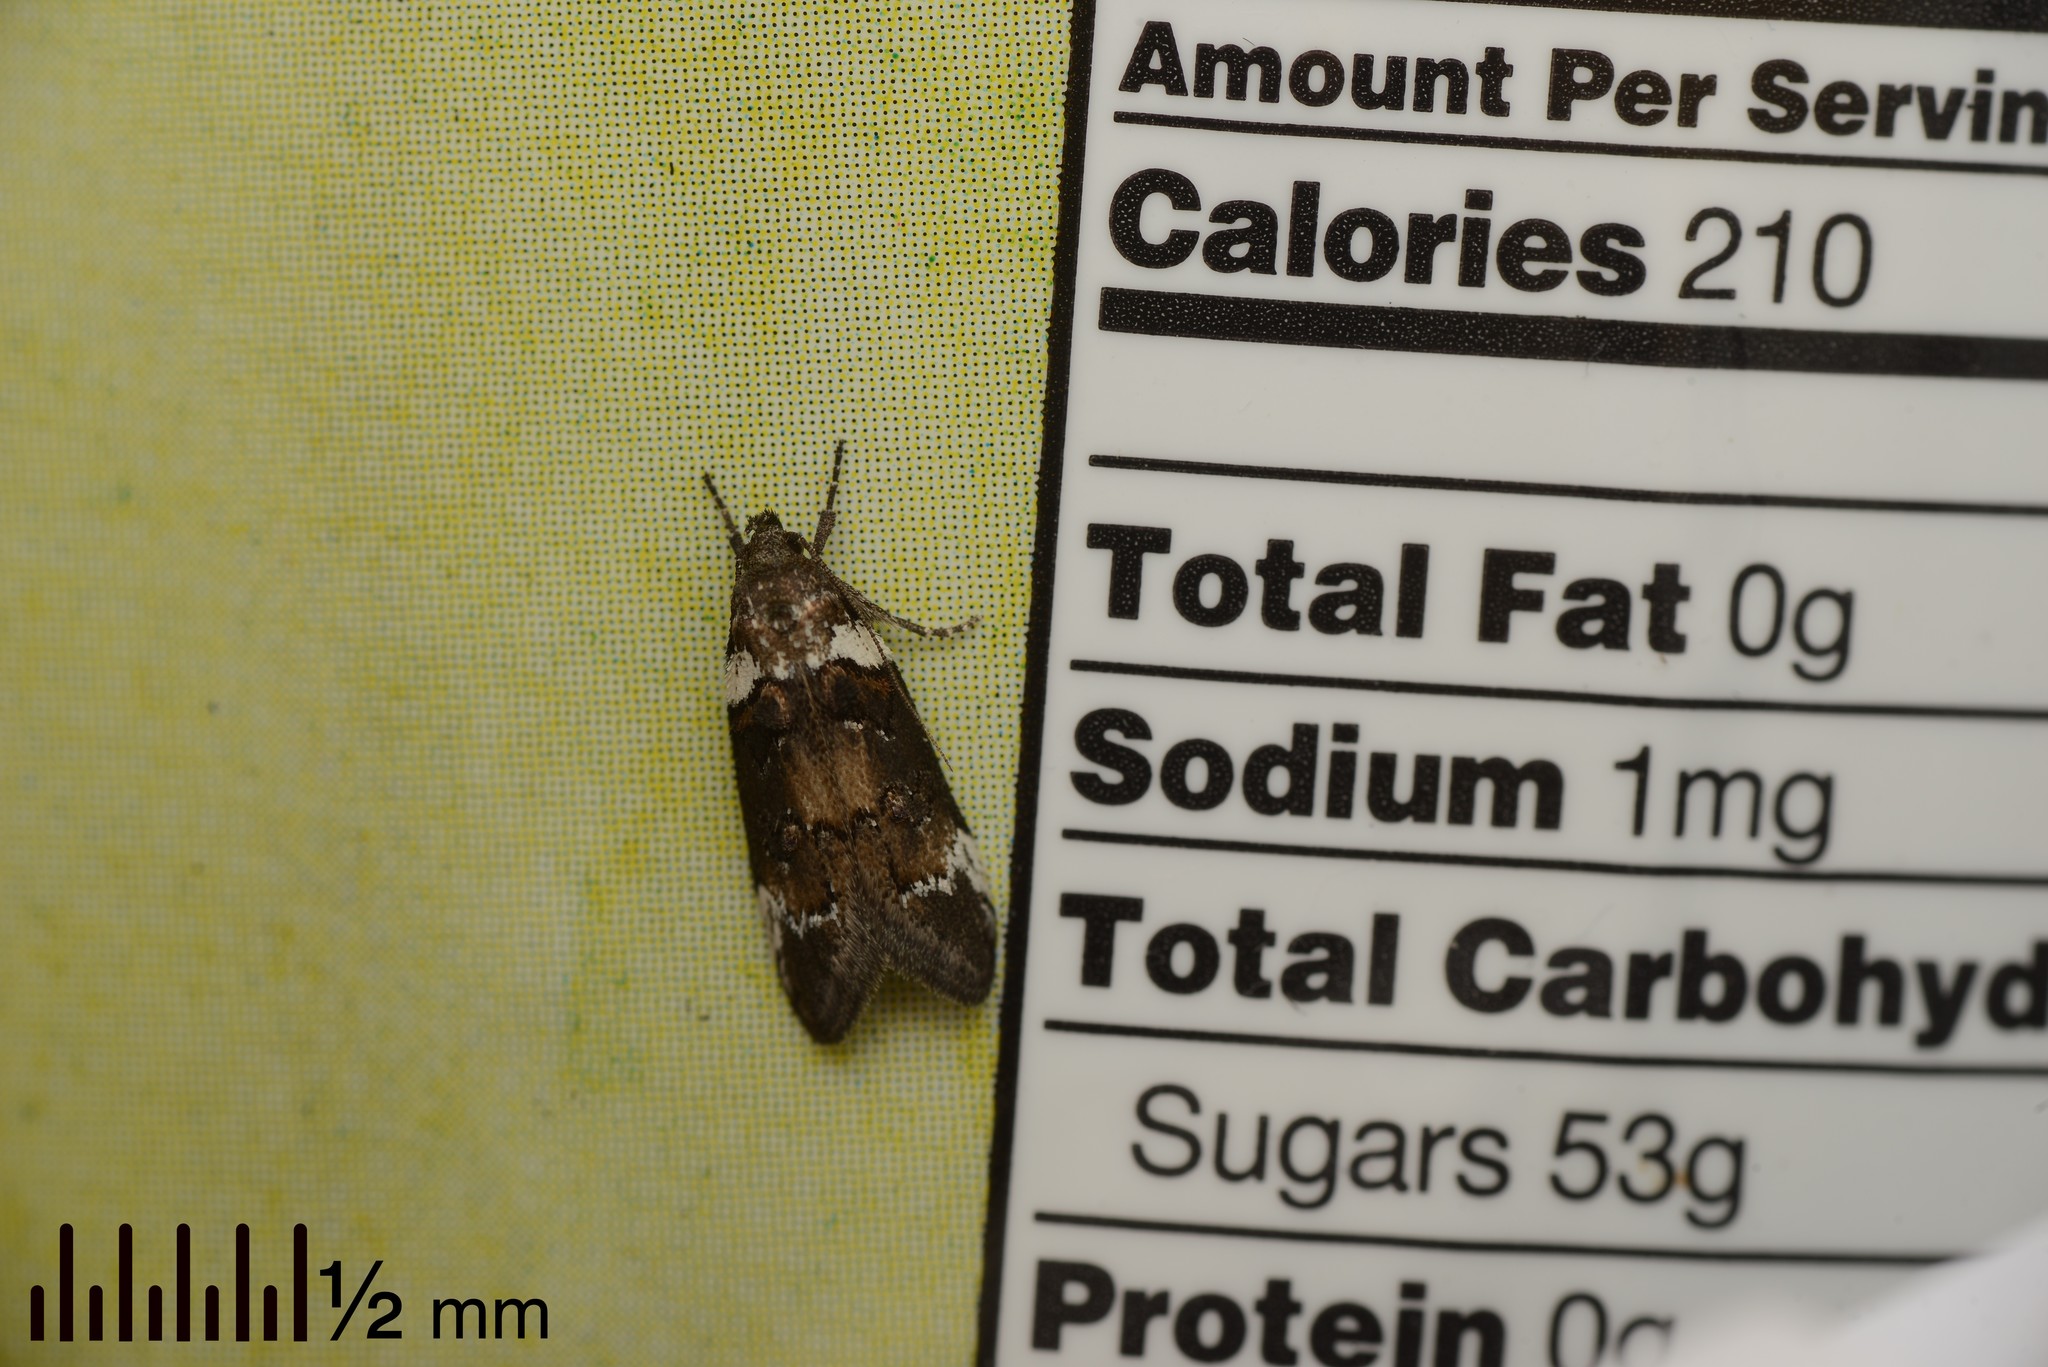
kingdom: Animalia
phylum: Arthropoda
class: Insecta
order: Lepidoptera
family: Oecophoridae
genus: Trachypepla
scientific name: Trachypepla conspicuella
